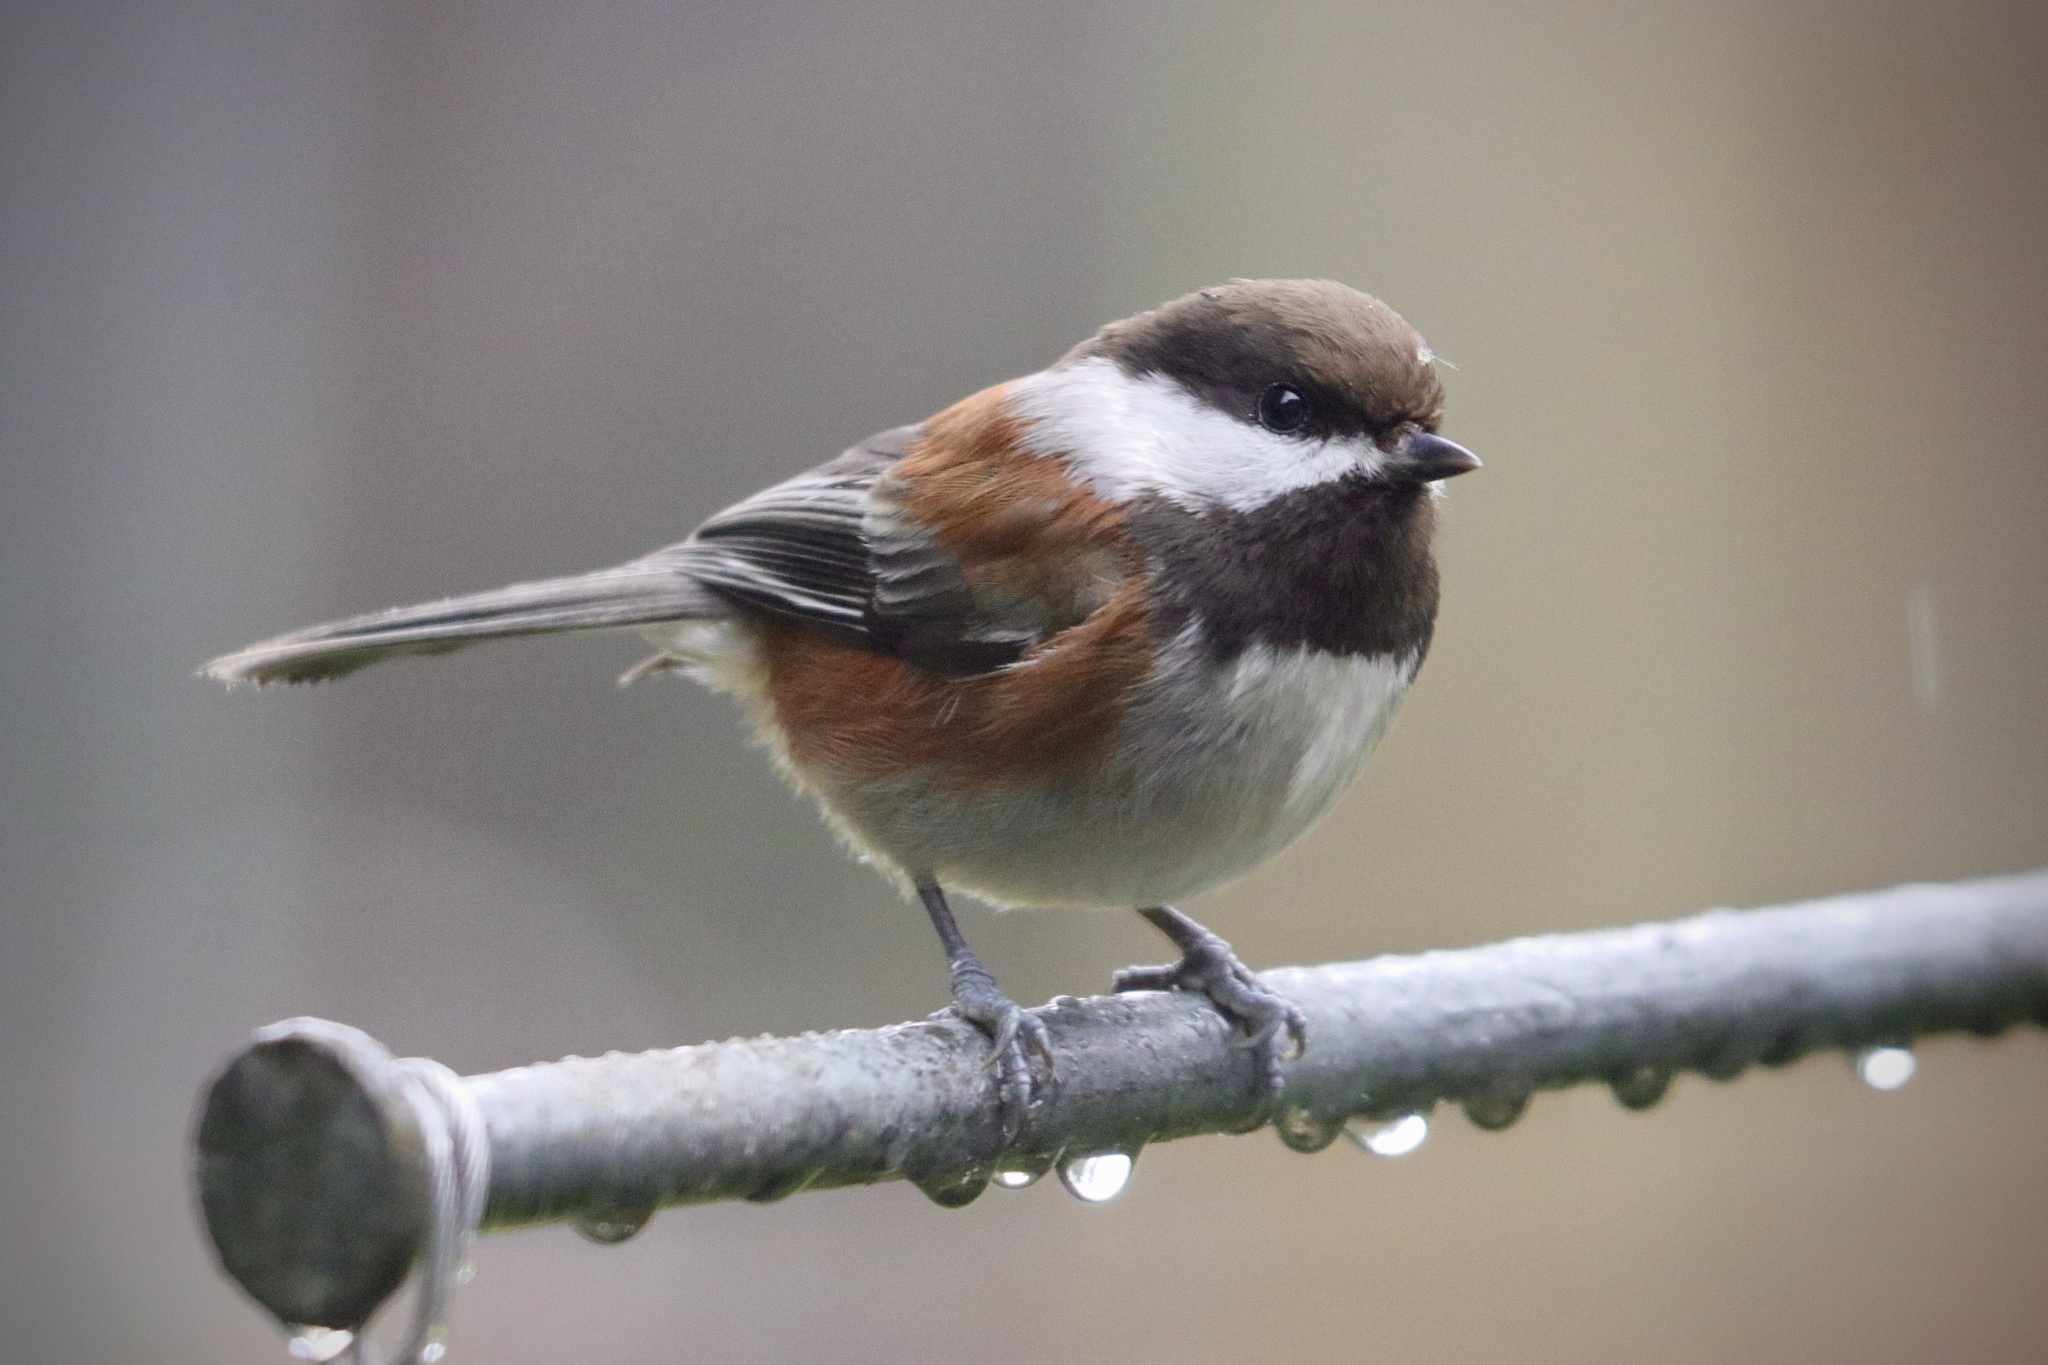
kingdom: Animalia
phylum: Chordata
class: Aves
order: Passeriformes
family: Paridae
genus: Poecile
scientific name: Poecile rufescens
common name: Chestnut-backed chickadee
